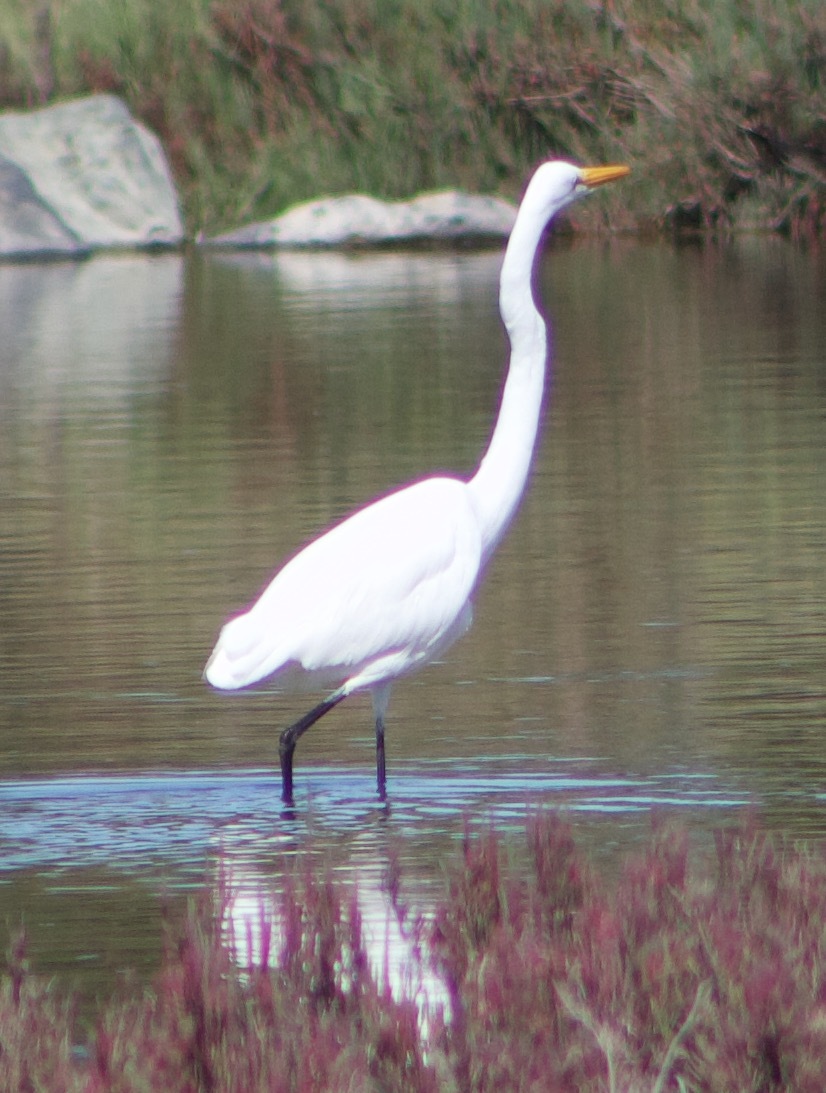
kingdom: Animalia
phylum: Chordata
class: Aves
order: Pelecaniformes
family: Ardeidae
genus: Ardea
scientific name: Ardea alba
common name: Great egret
